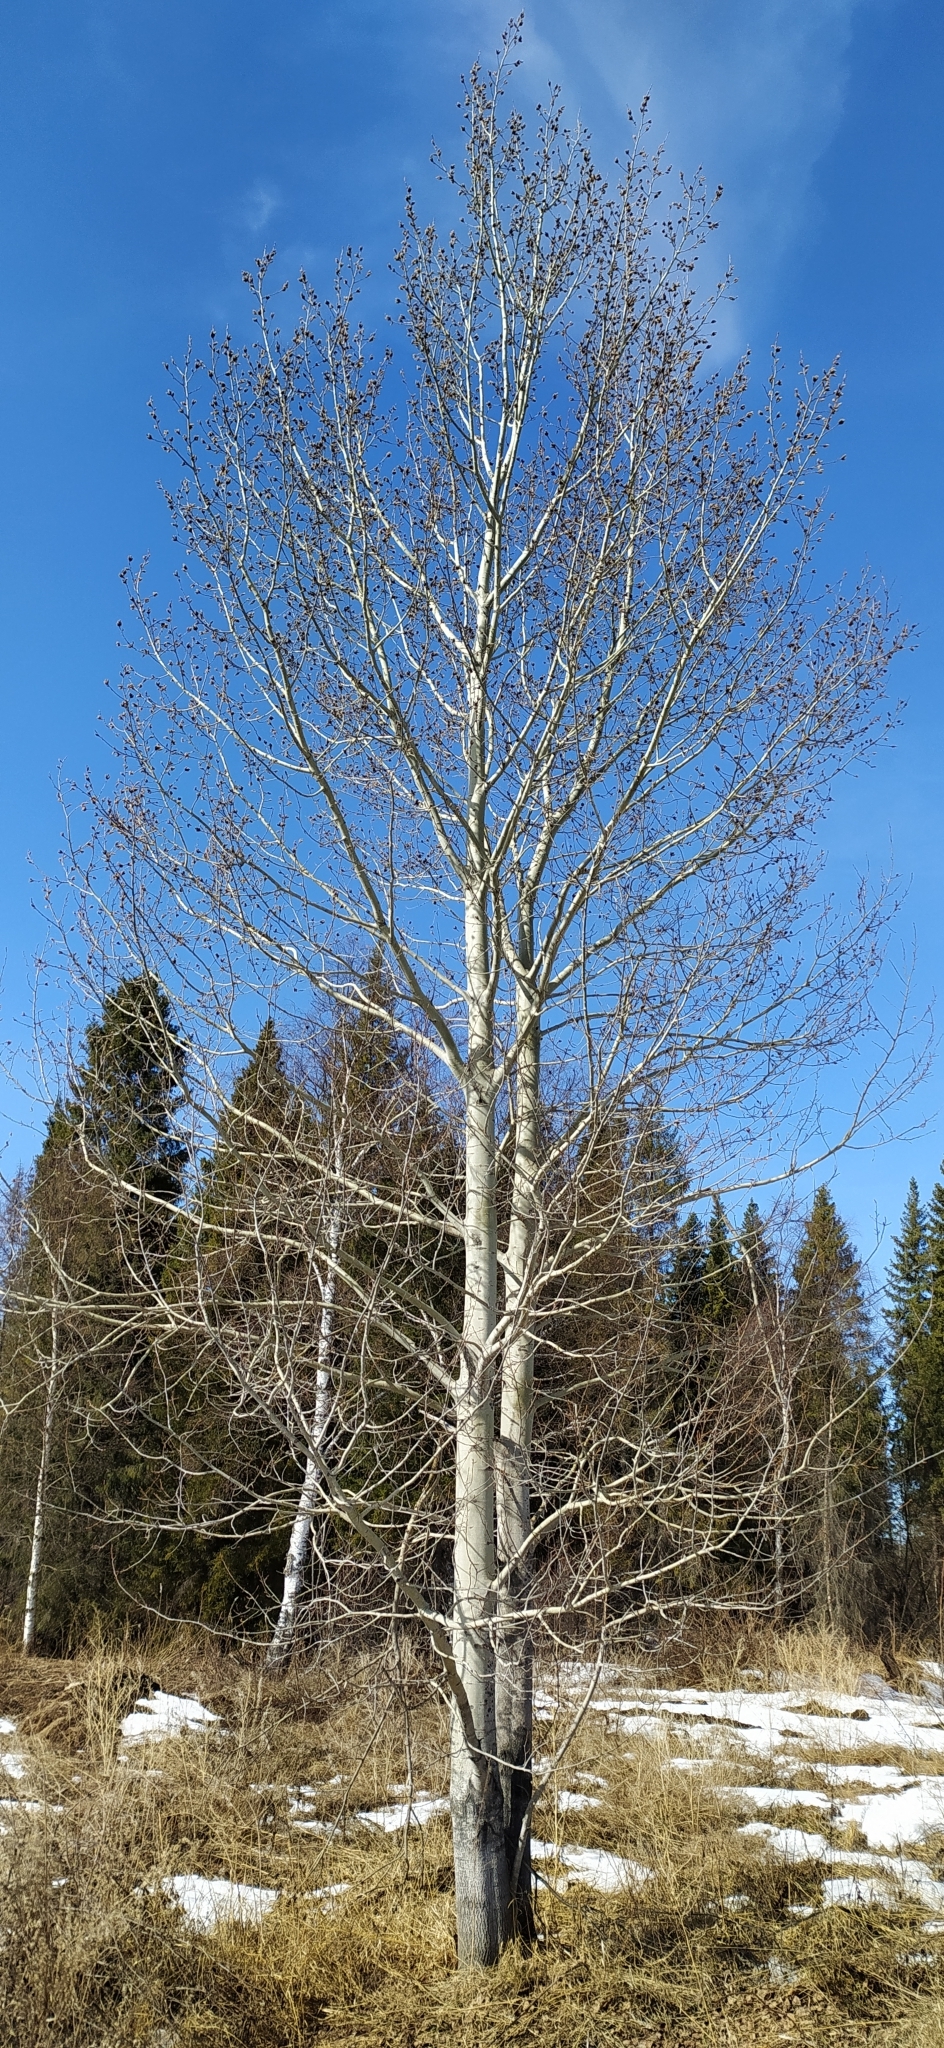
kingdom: Plantae
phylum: Tracheophyta
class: Magnoliopsida
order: Malpighiales
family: Salicaceae
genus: Populus
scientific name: Populus tremula
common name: European aspen
